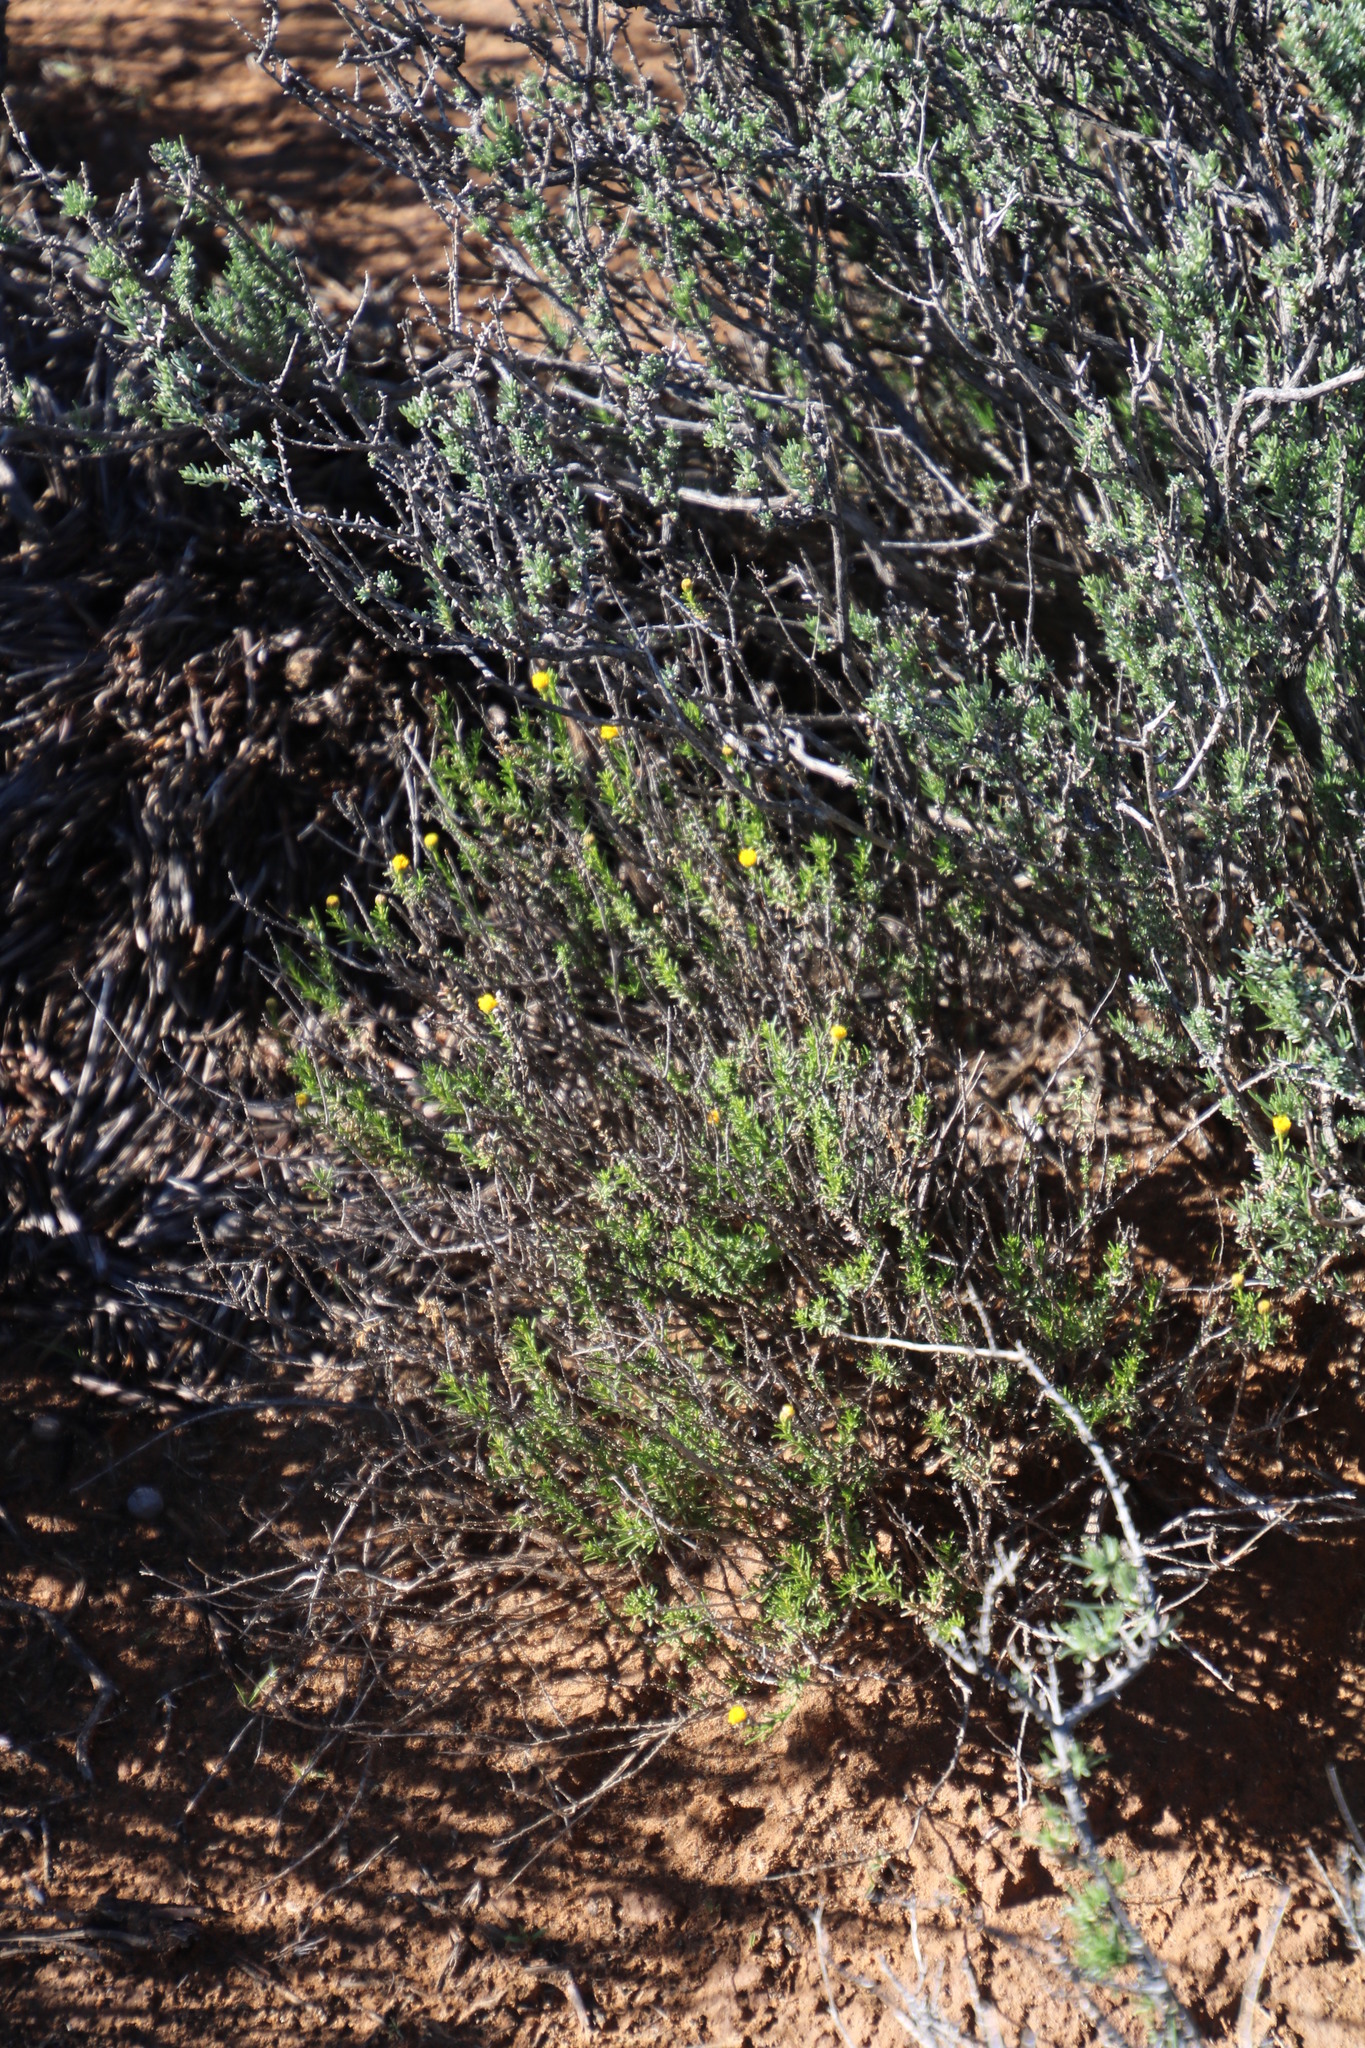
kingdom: Plantae
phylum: Tracheophyta
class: Magnoliopsida
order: Asterales
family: Asteraceae
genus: Chrysocoma
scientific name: Chrysocoma ciliata
